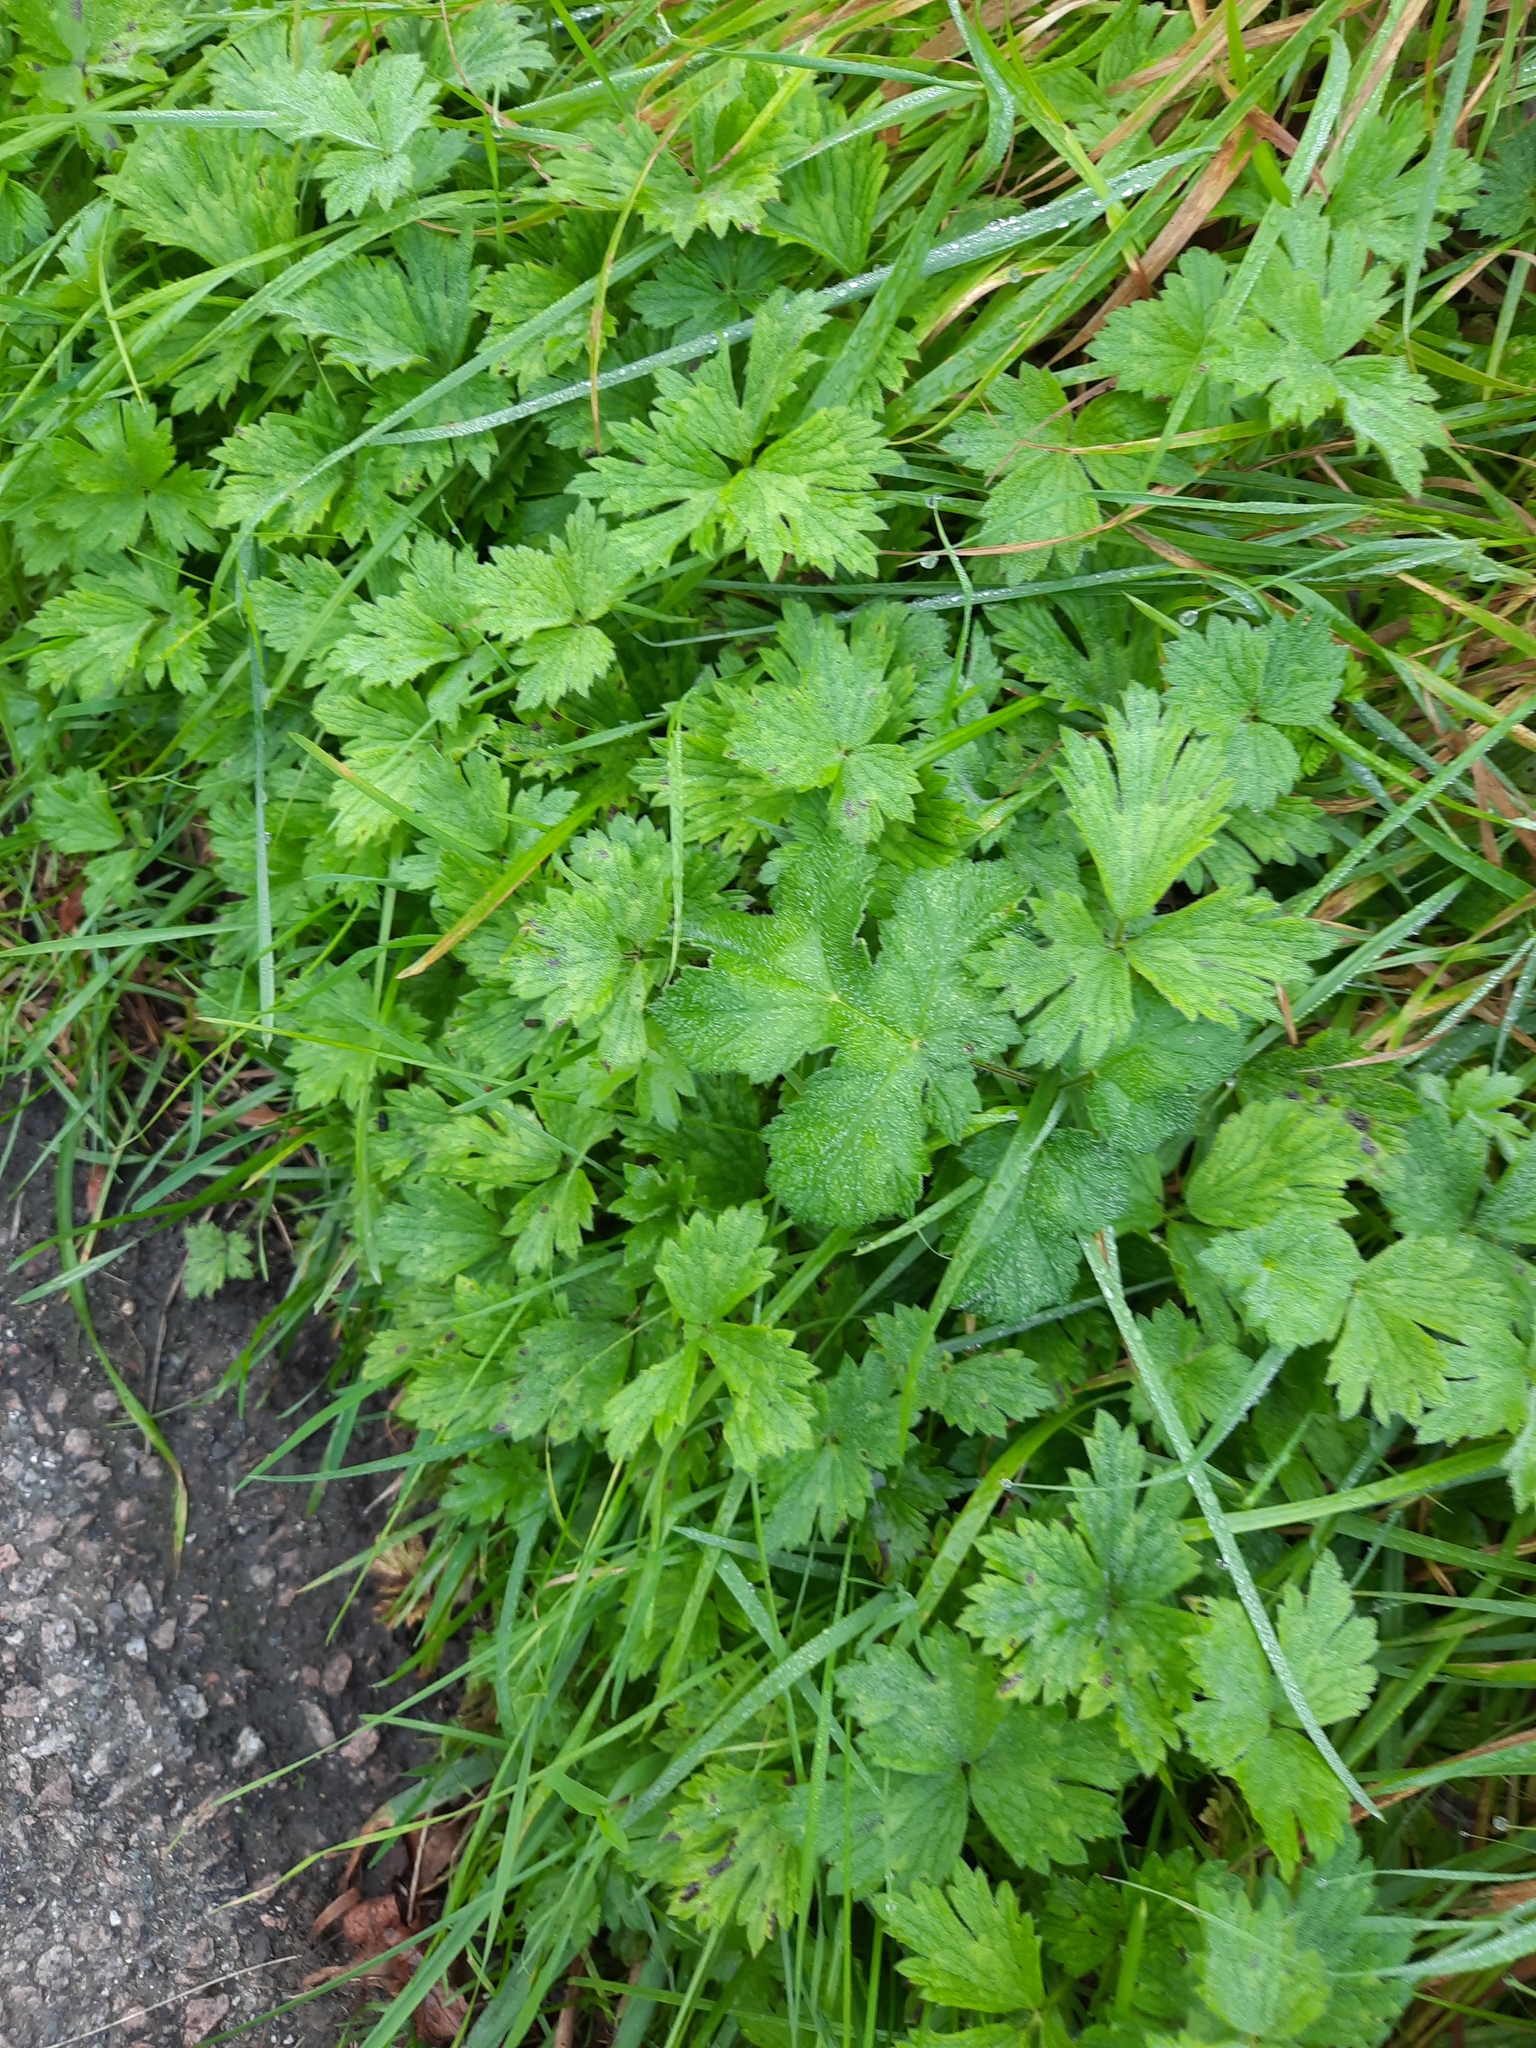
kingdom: Plantae
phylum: Tracheophyta
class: Magnoliopsida
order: Ranunculales
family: Ranunculaceae
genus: Ranunculus
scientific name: Ranunculus repens
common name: Creeping buttercup
